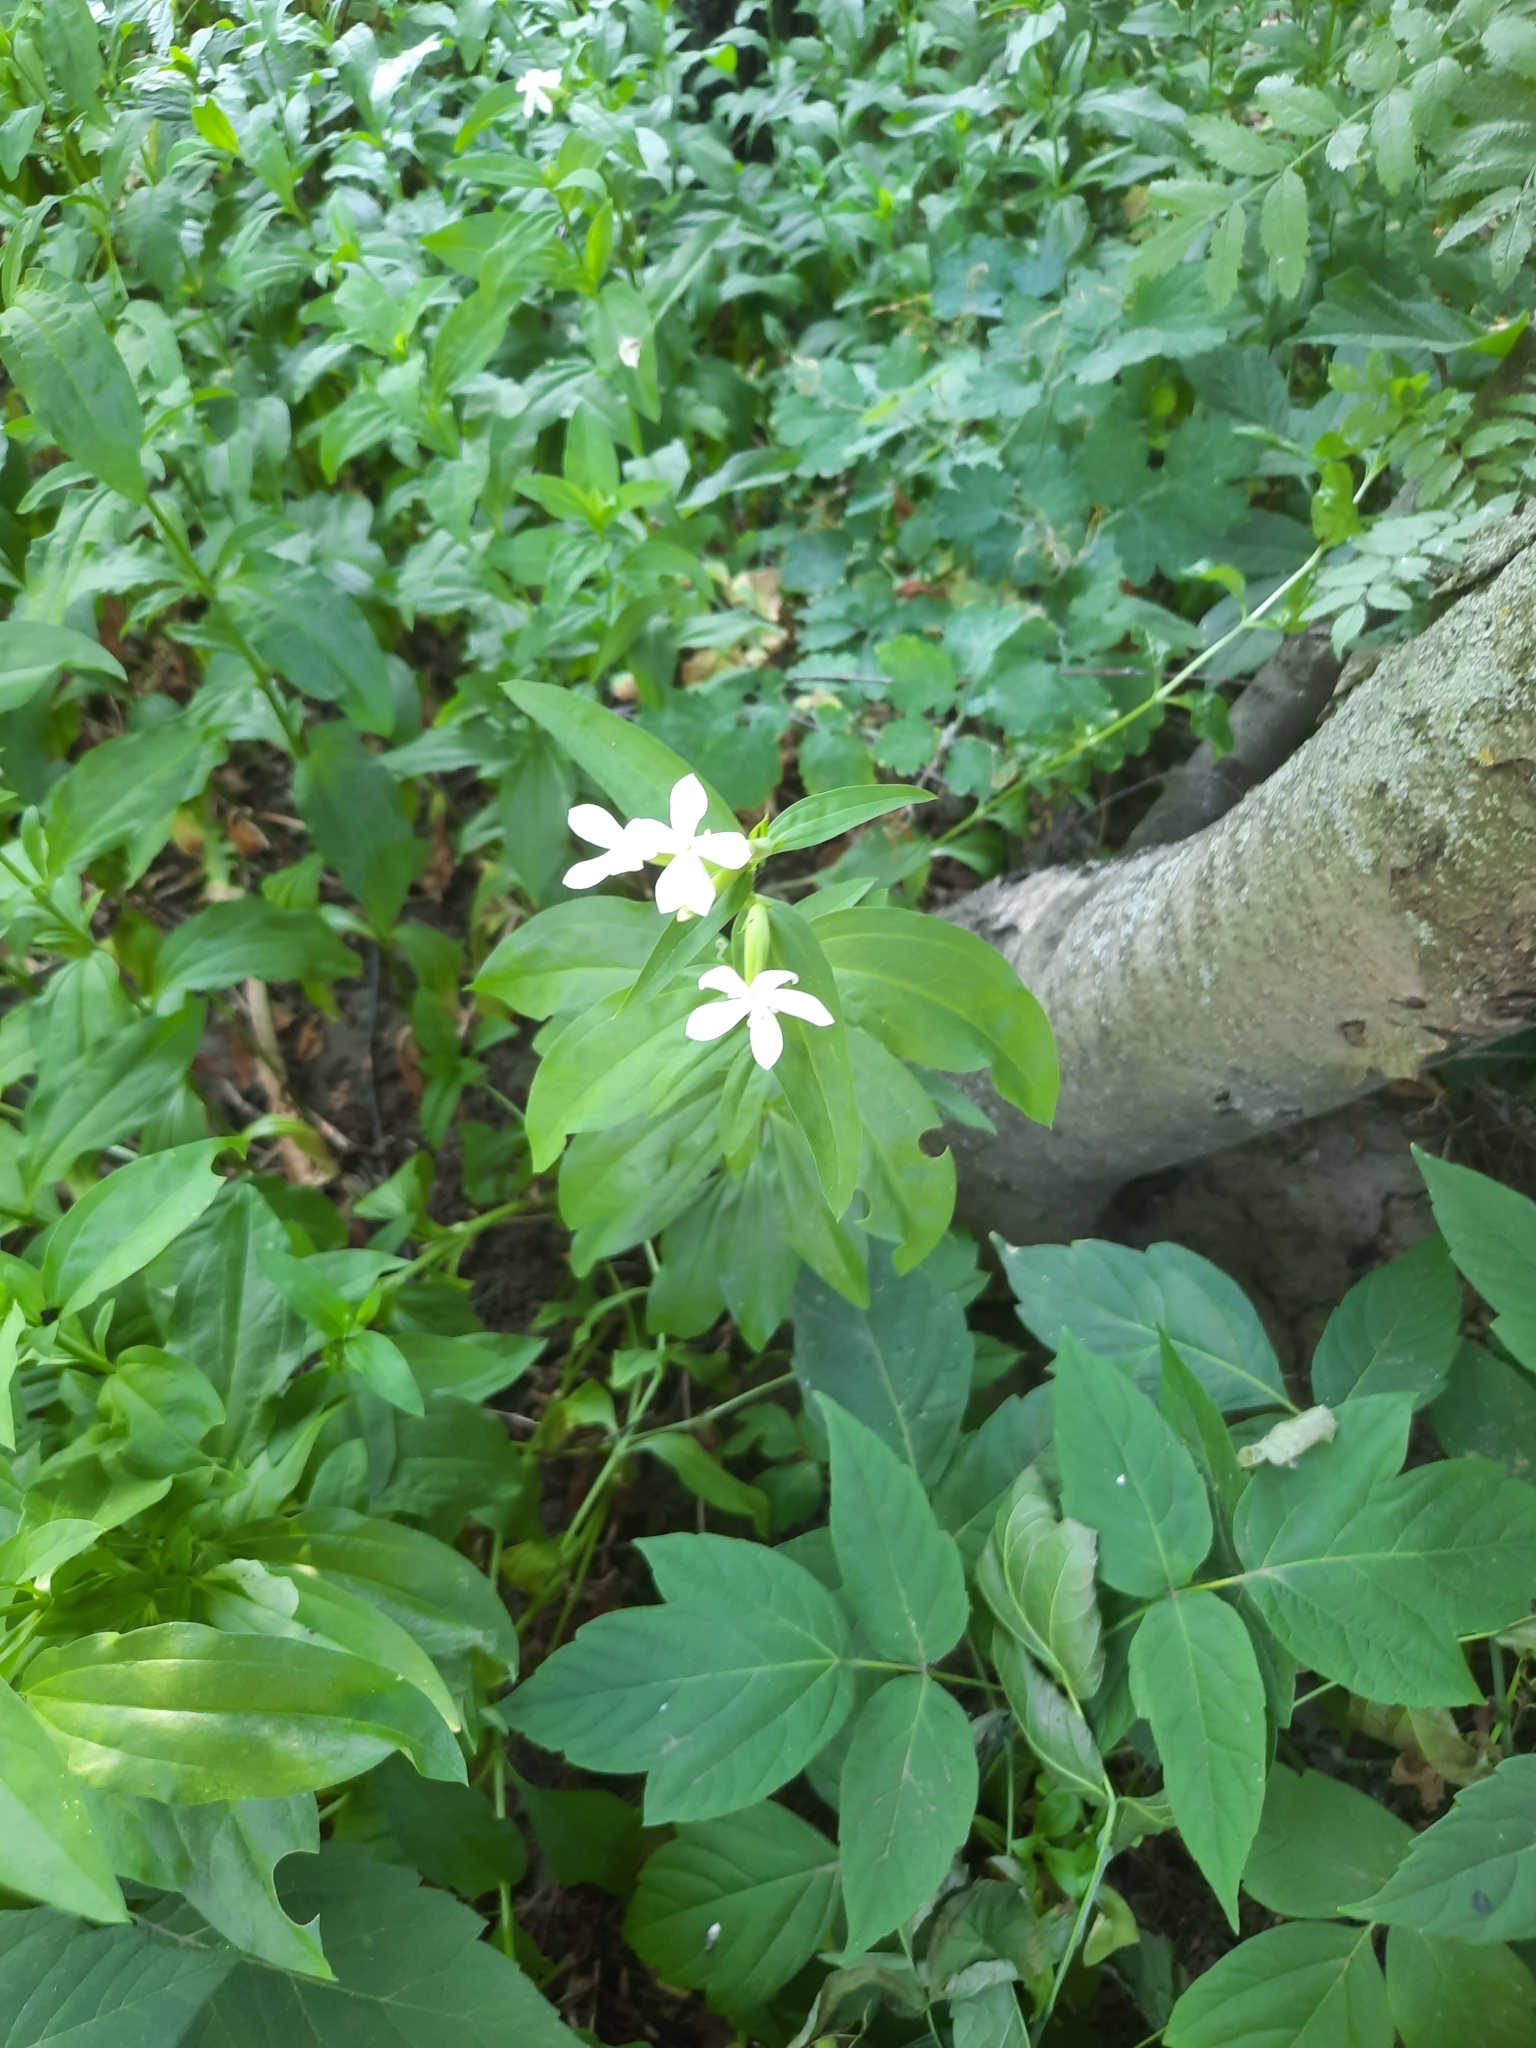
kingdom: Plantae
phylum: Tracheophyta
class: Magnoliopsida
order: Caryophyllales
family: Caryophyllaceae
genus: Saponaria
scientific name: Saponaria officinalis
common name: Soapwort
